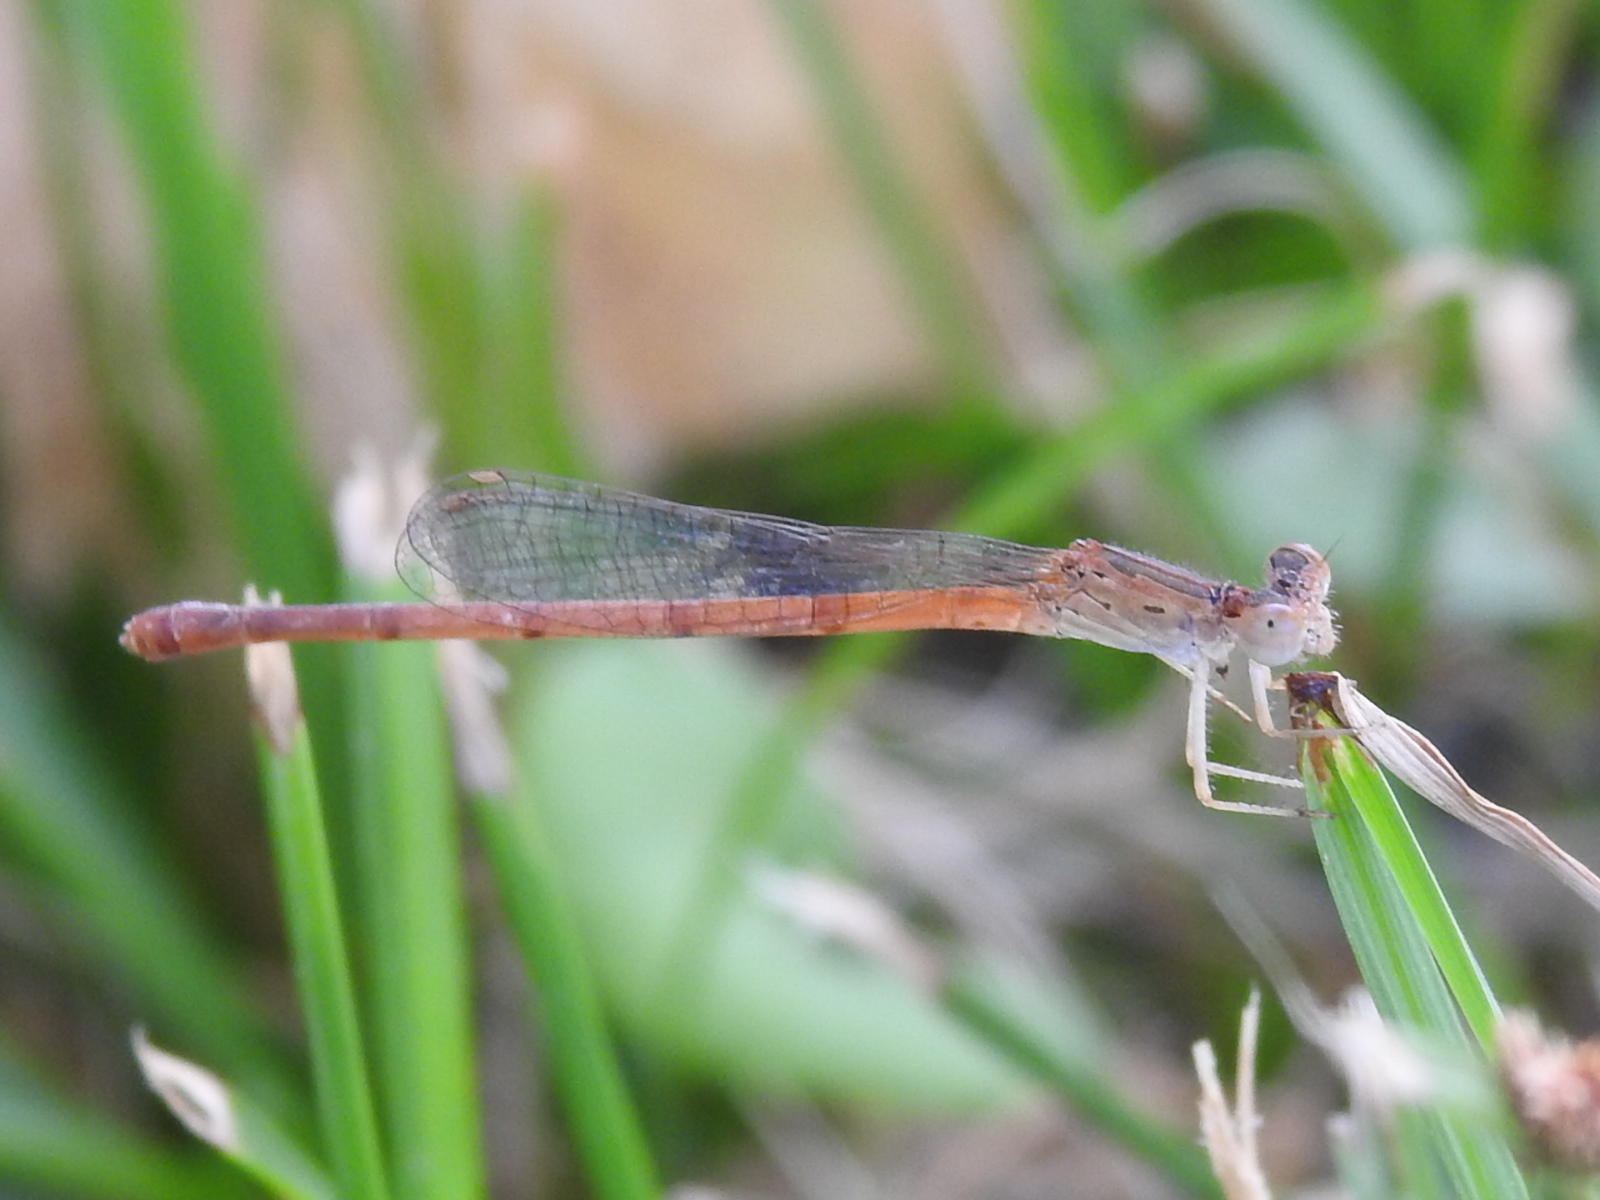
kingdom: Animalia
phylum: Arthropoda
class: Insecta
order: Odonata
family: Coenagrionidae
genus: Telebasis
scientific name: Telebasis salva
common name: Desert firetail
